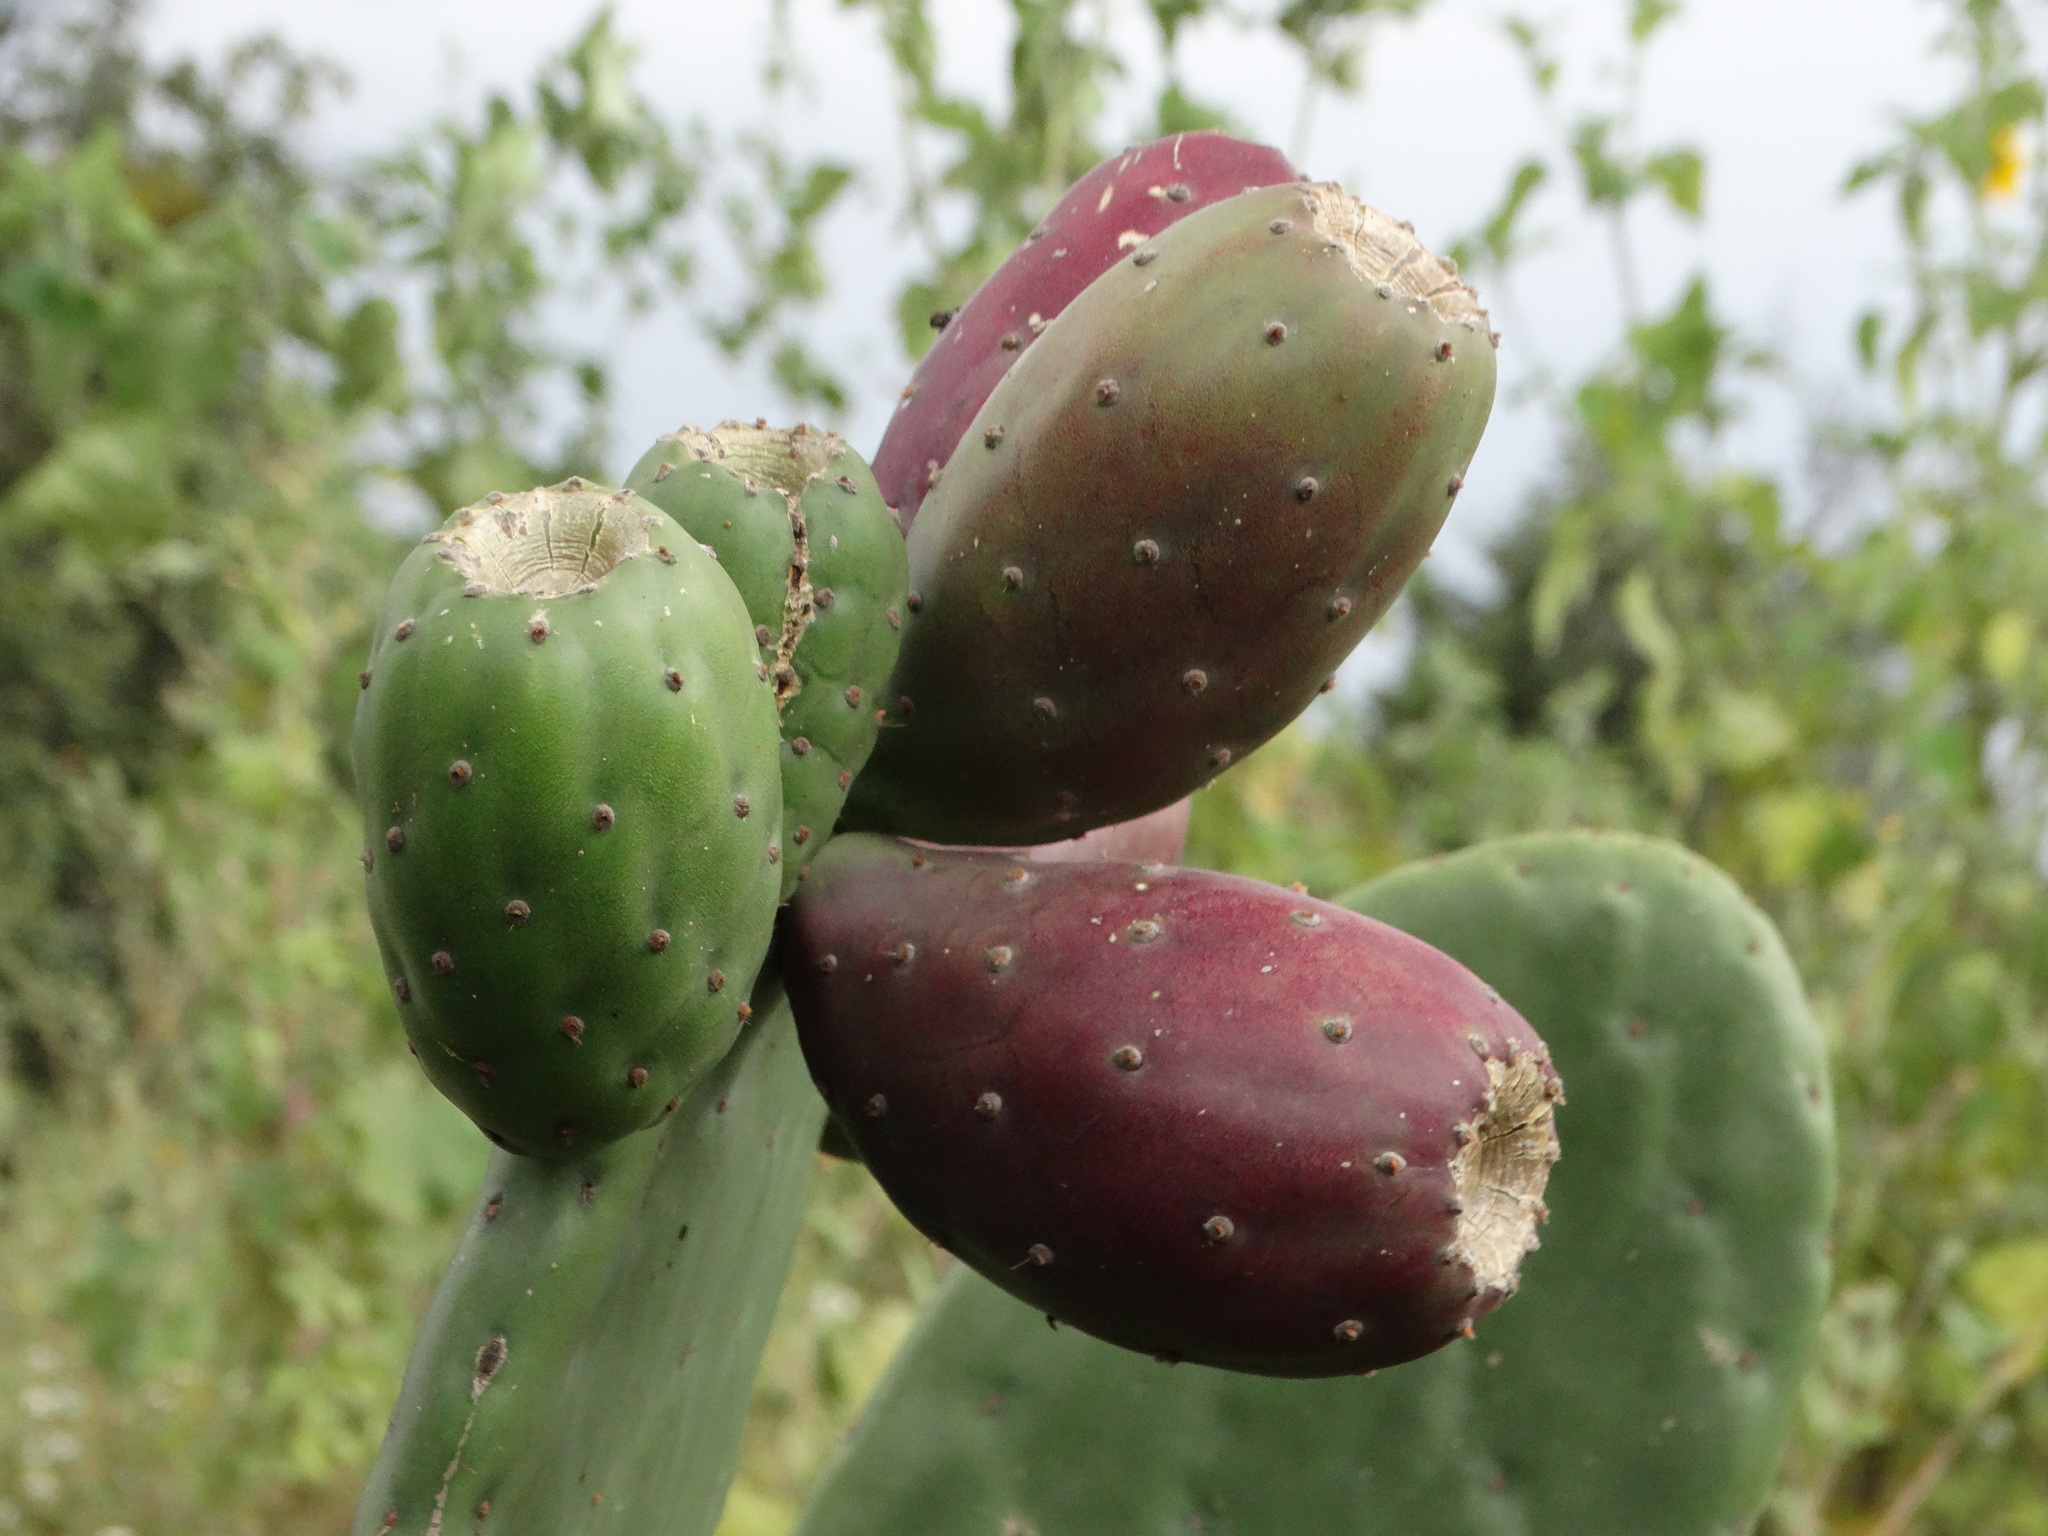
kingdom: Plantae
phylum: Tracheophyta
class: Magnoliopsida
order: Caryophyllales
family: Cactaceae
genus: Opuntia
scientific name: Opuntia ficus-indica
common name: Barbary fig
